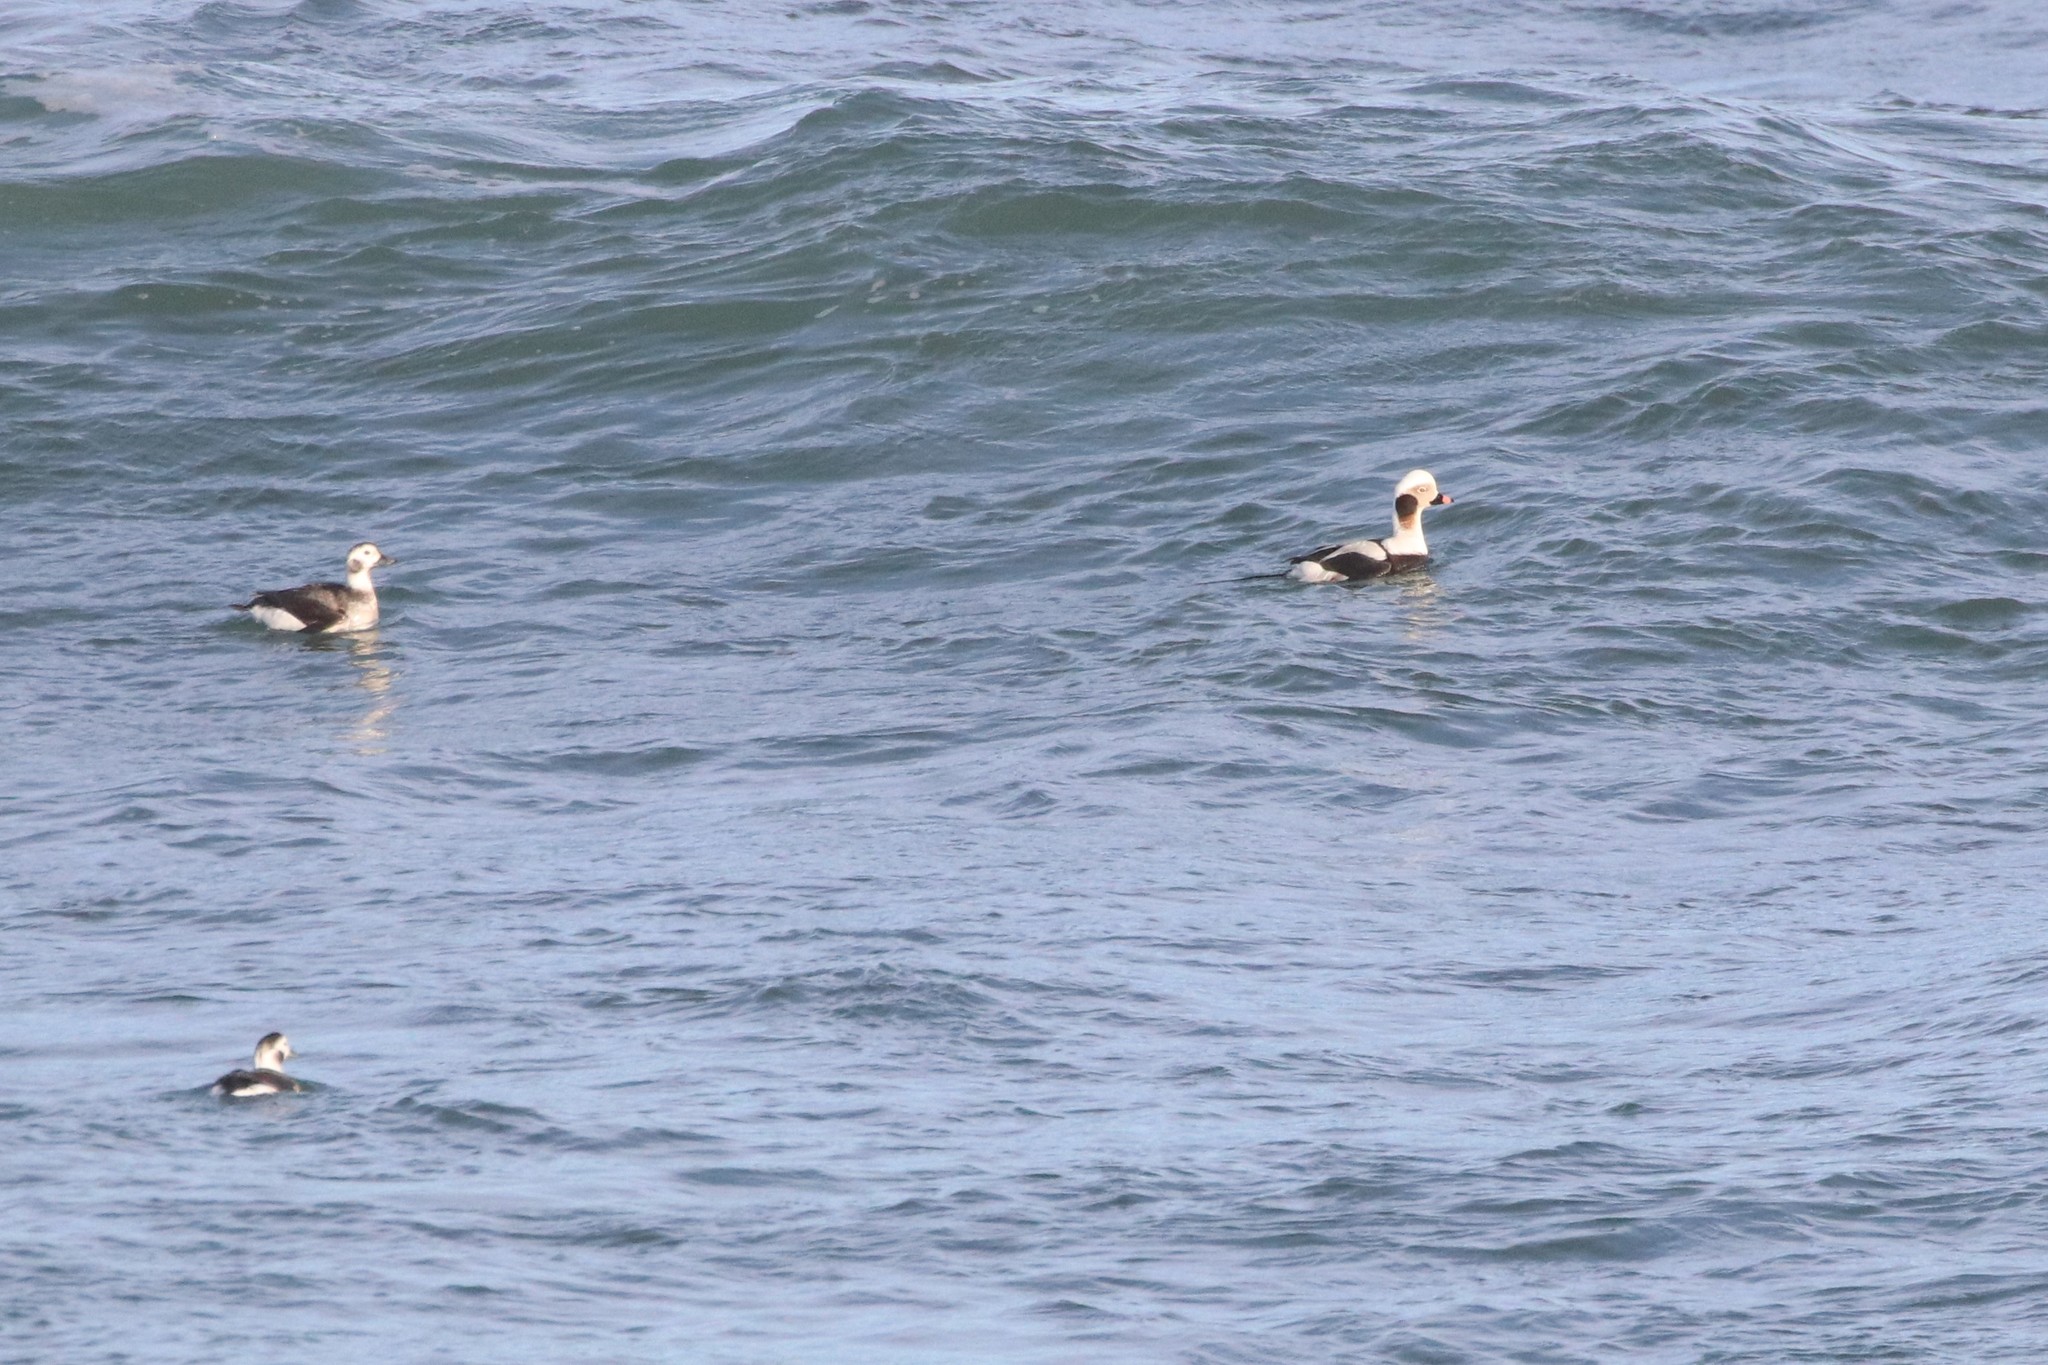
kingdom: Animalia
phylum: Chordata
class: Aves
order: Anseriformes
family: Anatidae
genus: Clangula
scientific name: Clangula hyemalis
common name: Long-tailed duck
